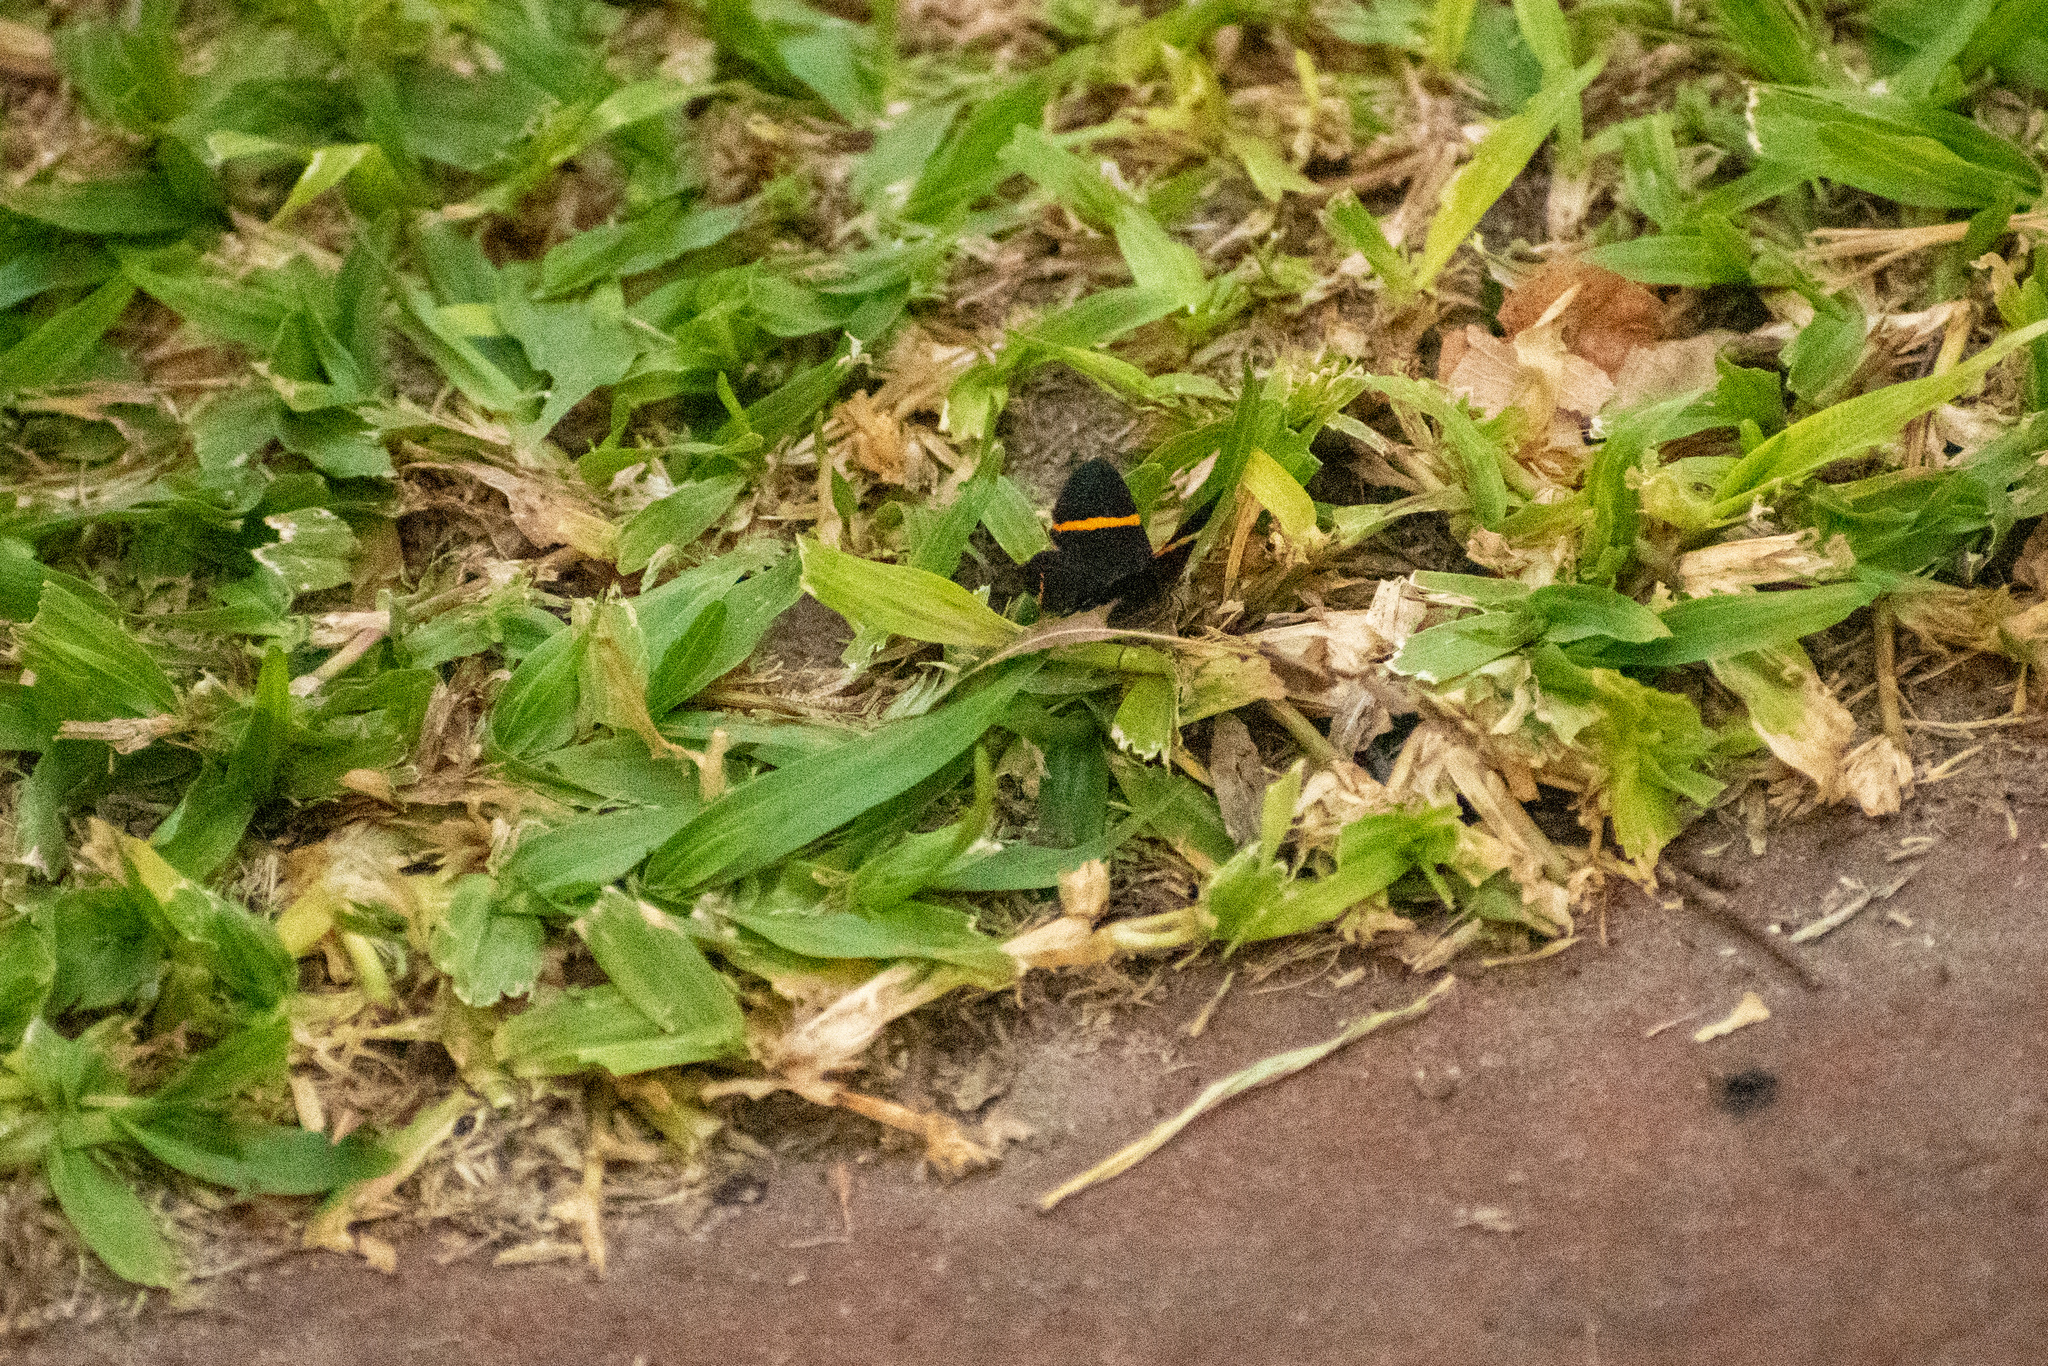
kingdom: Animalia
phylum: Arthropoda
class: Insecta
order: Lepidoptera
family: Riodinidae
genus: Riodina
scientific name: Riodina lysippoides
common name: Little dancer metalmark
